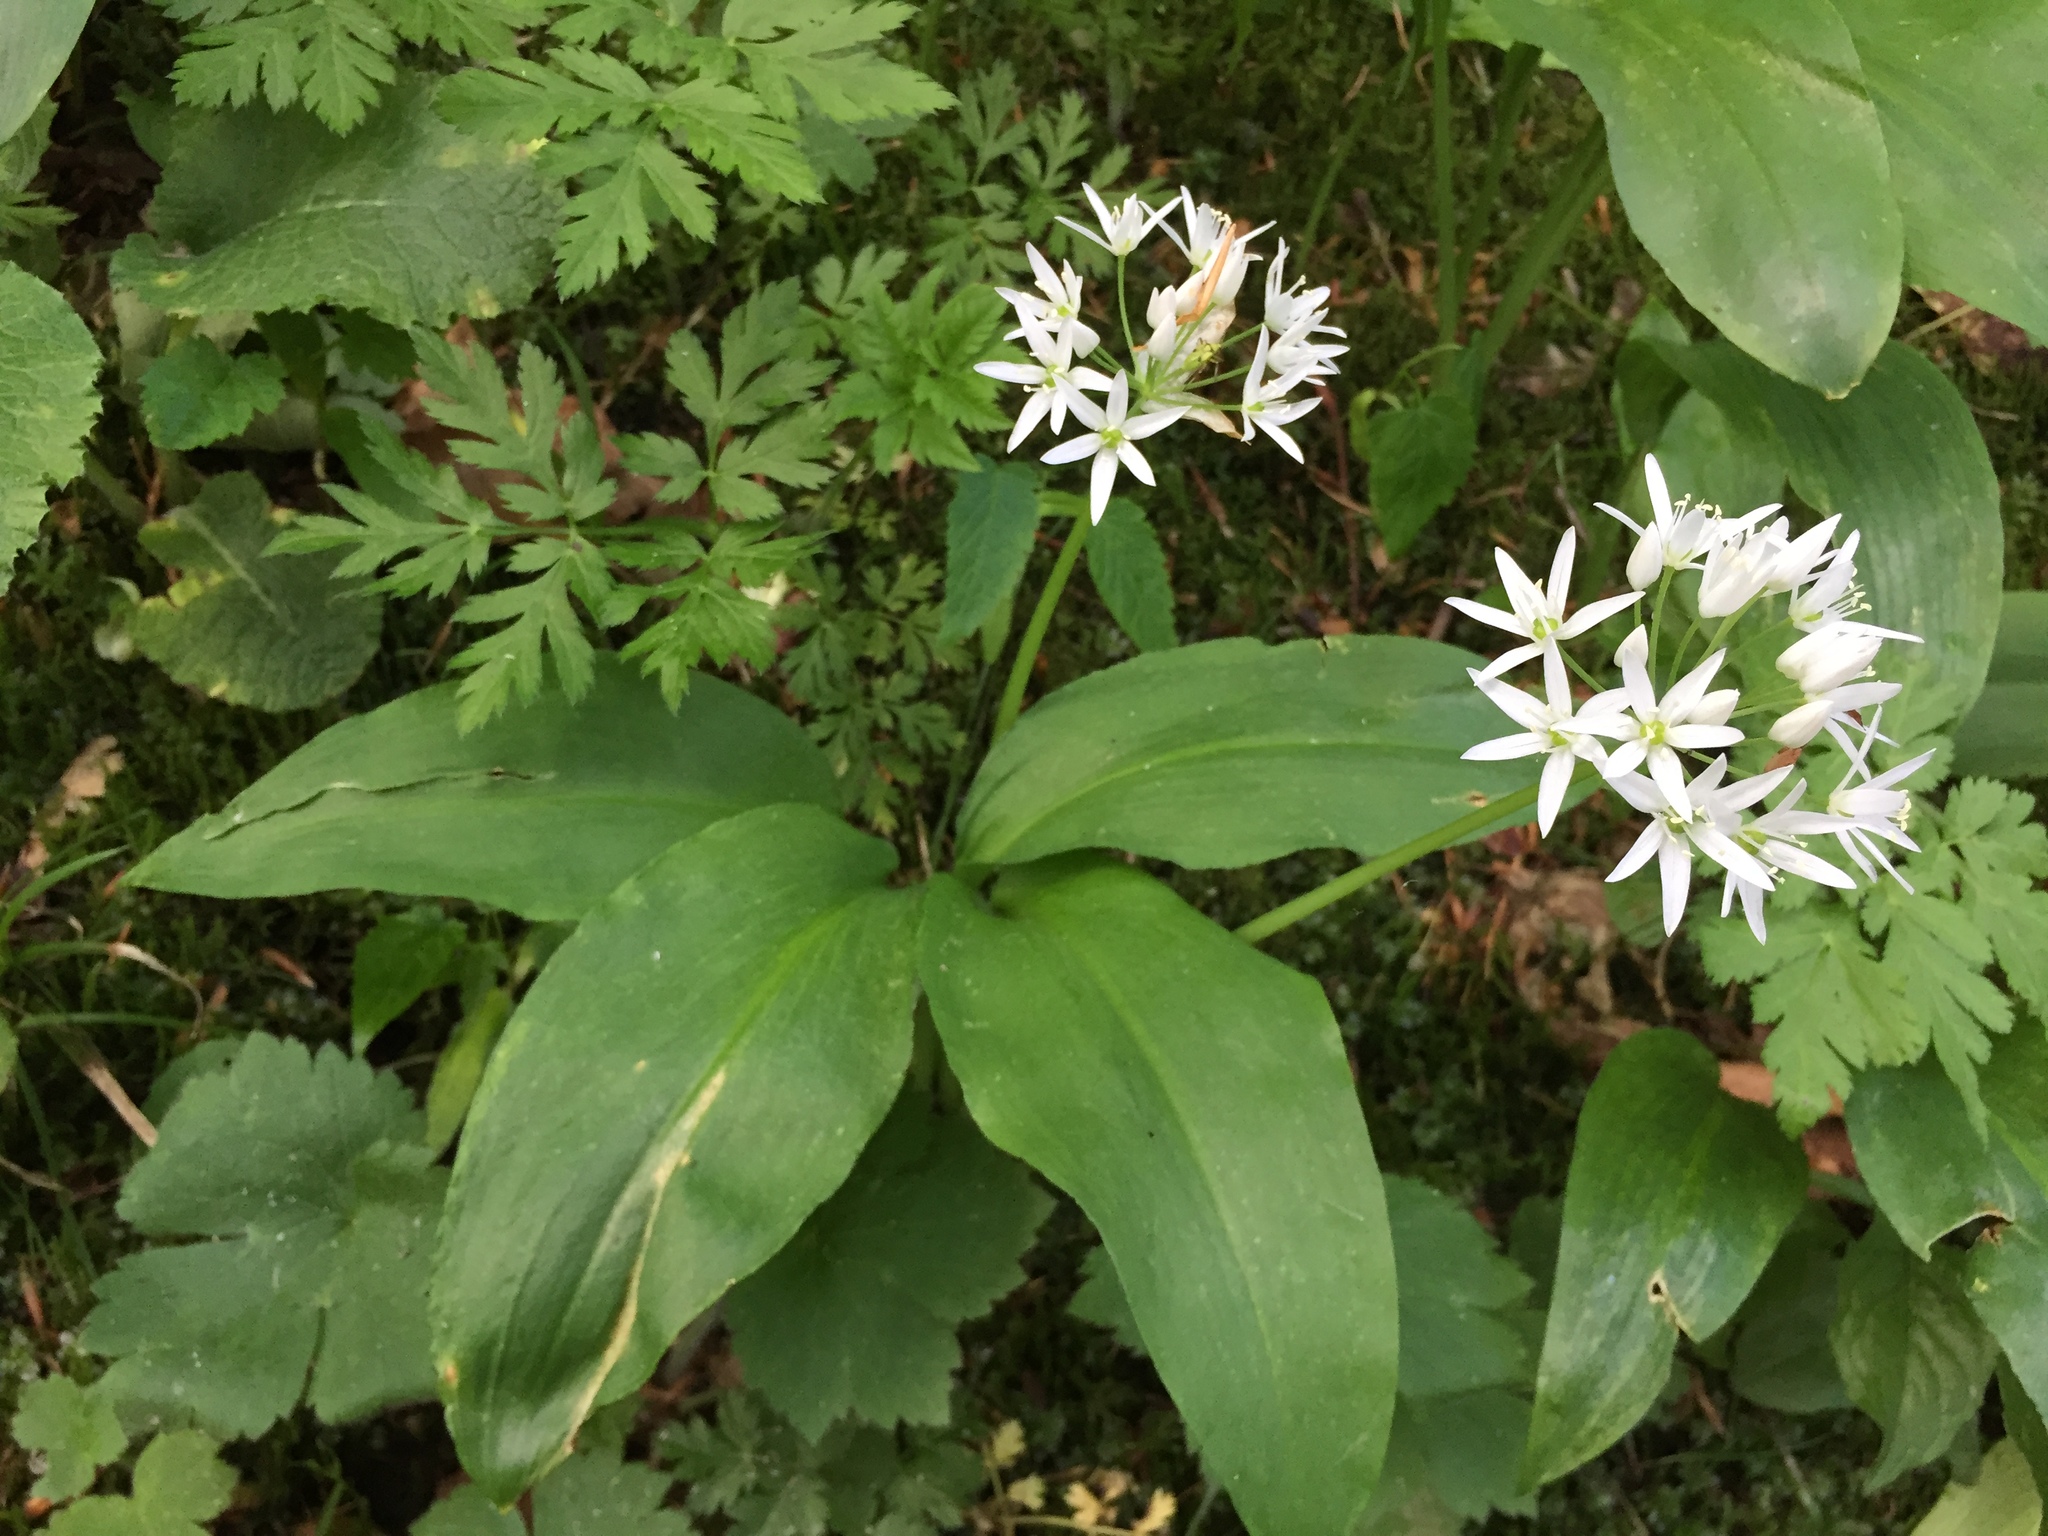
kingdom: Plantae
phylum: Tracheophyta
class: Liliopsida
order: Asparagales
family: Amaryllidaceae
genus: Allium
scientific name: Allium ursinum
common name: Ramsons
